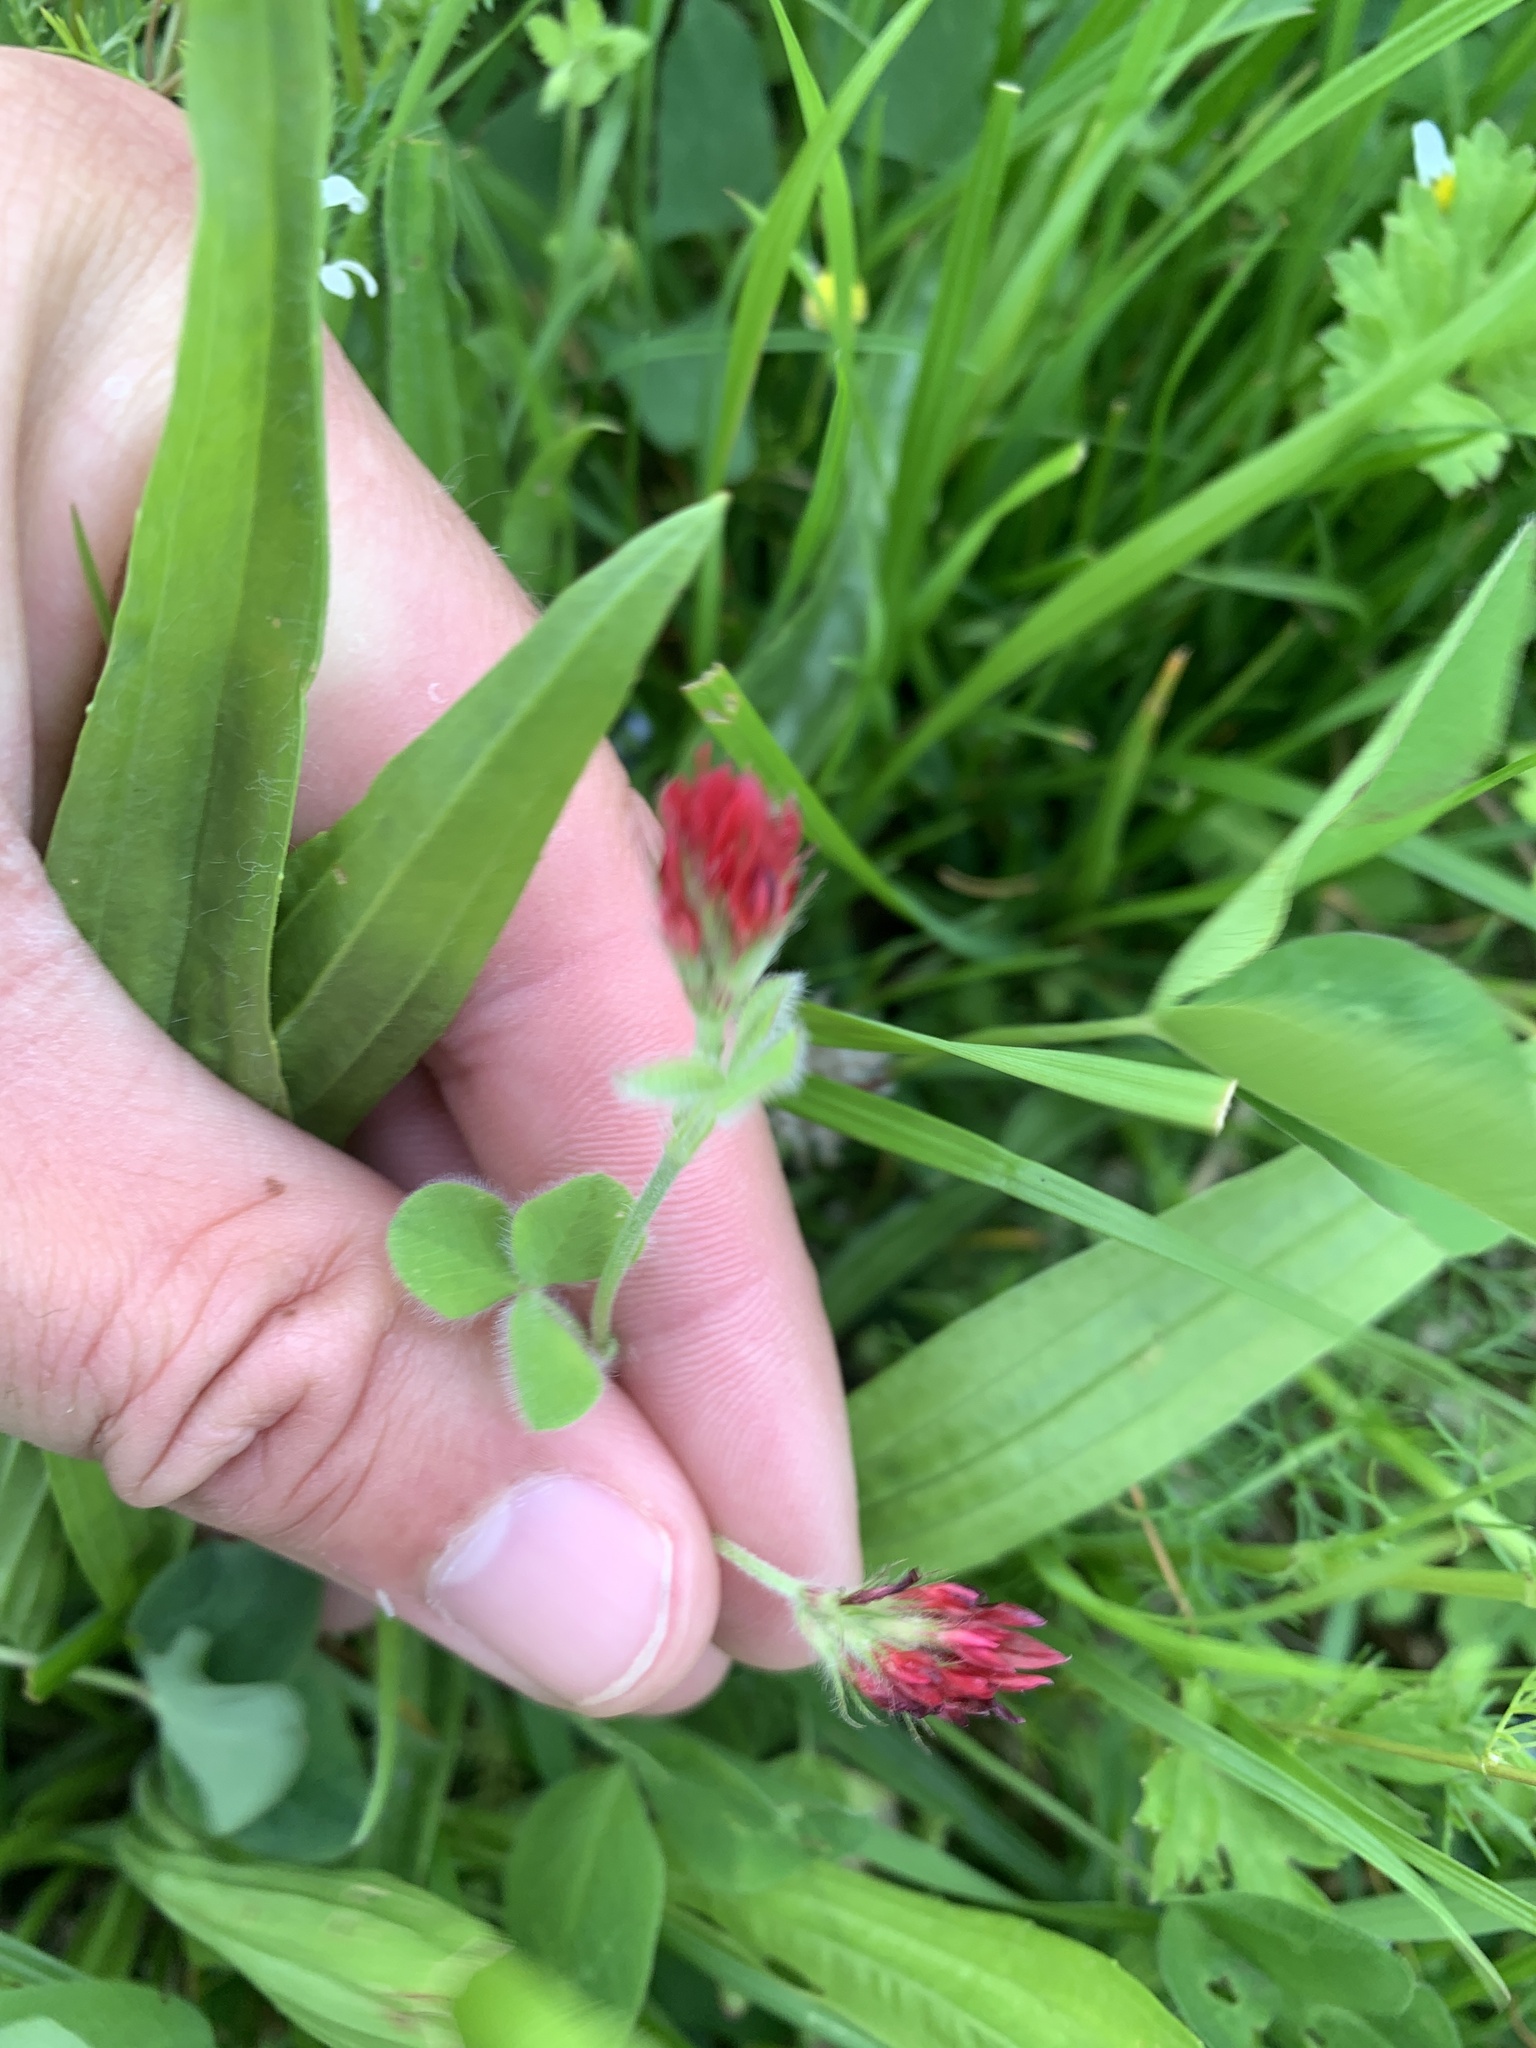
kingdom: Plantae
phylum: Tracheophyta
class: Magnoliopsida
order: Fabales
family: Fabaceae
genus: Trifolium
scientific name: Trifolium incarnatum
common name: Crimson clover
